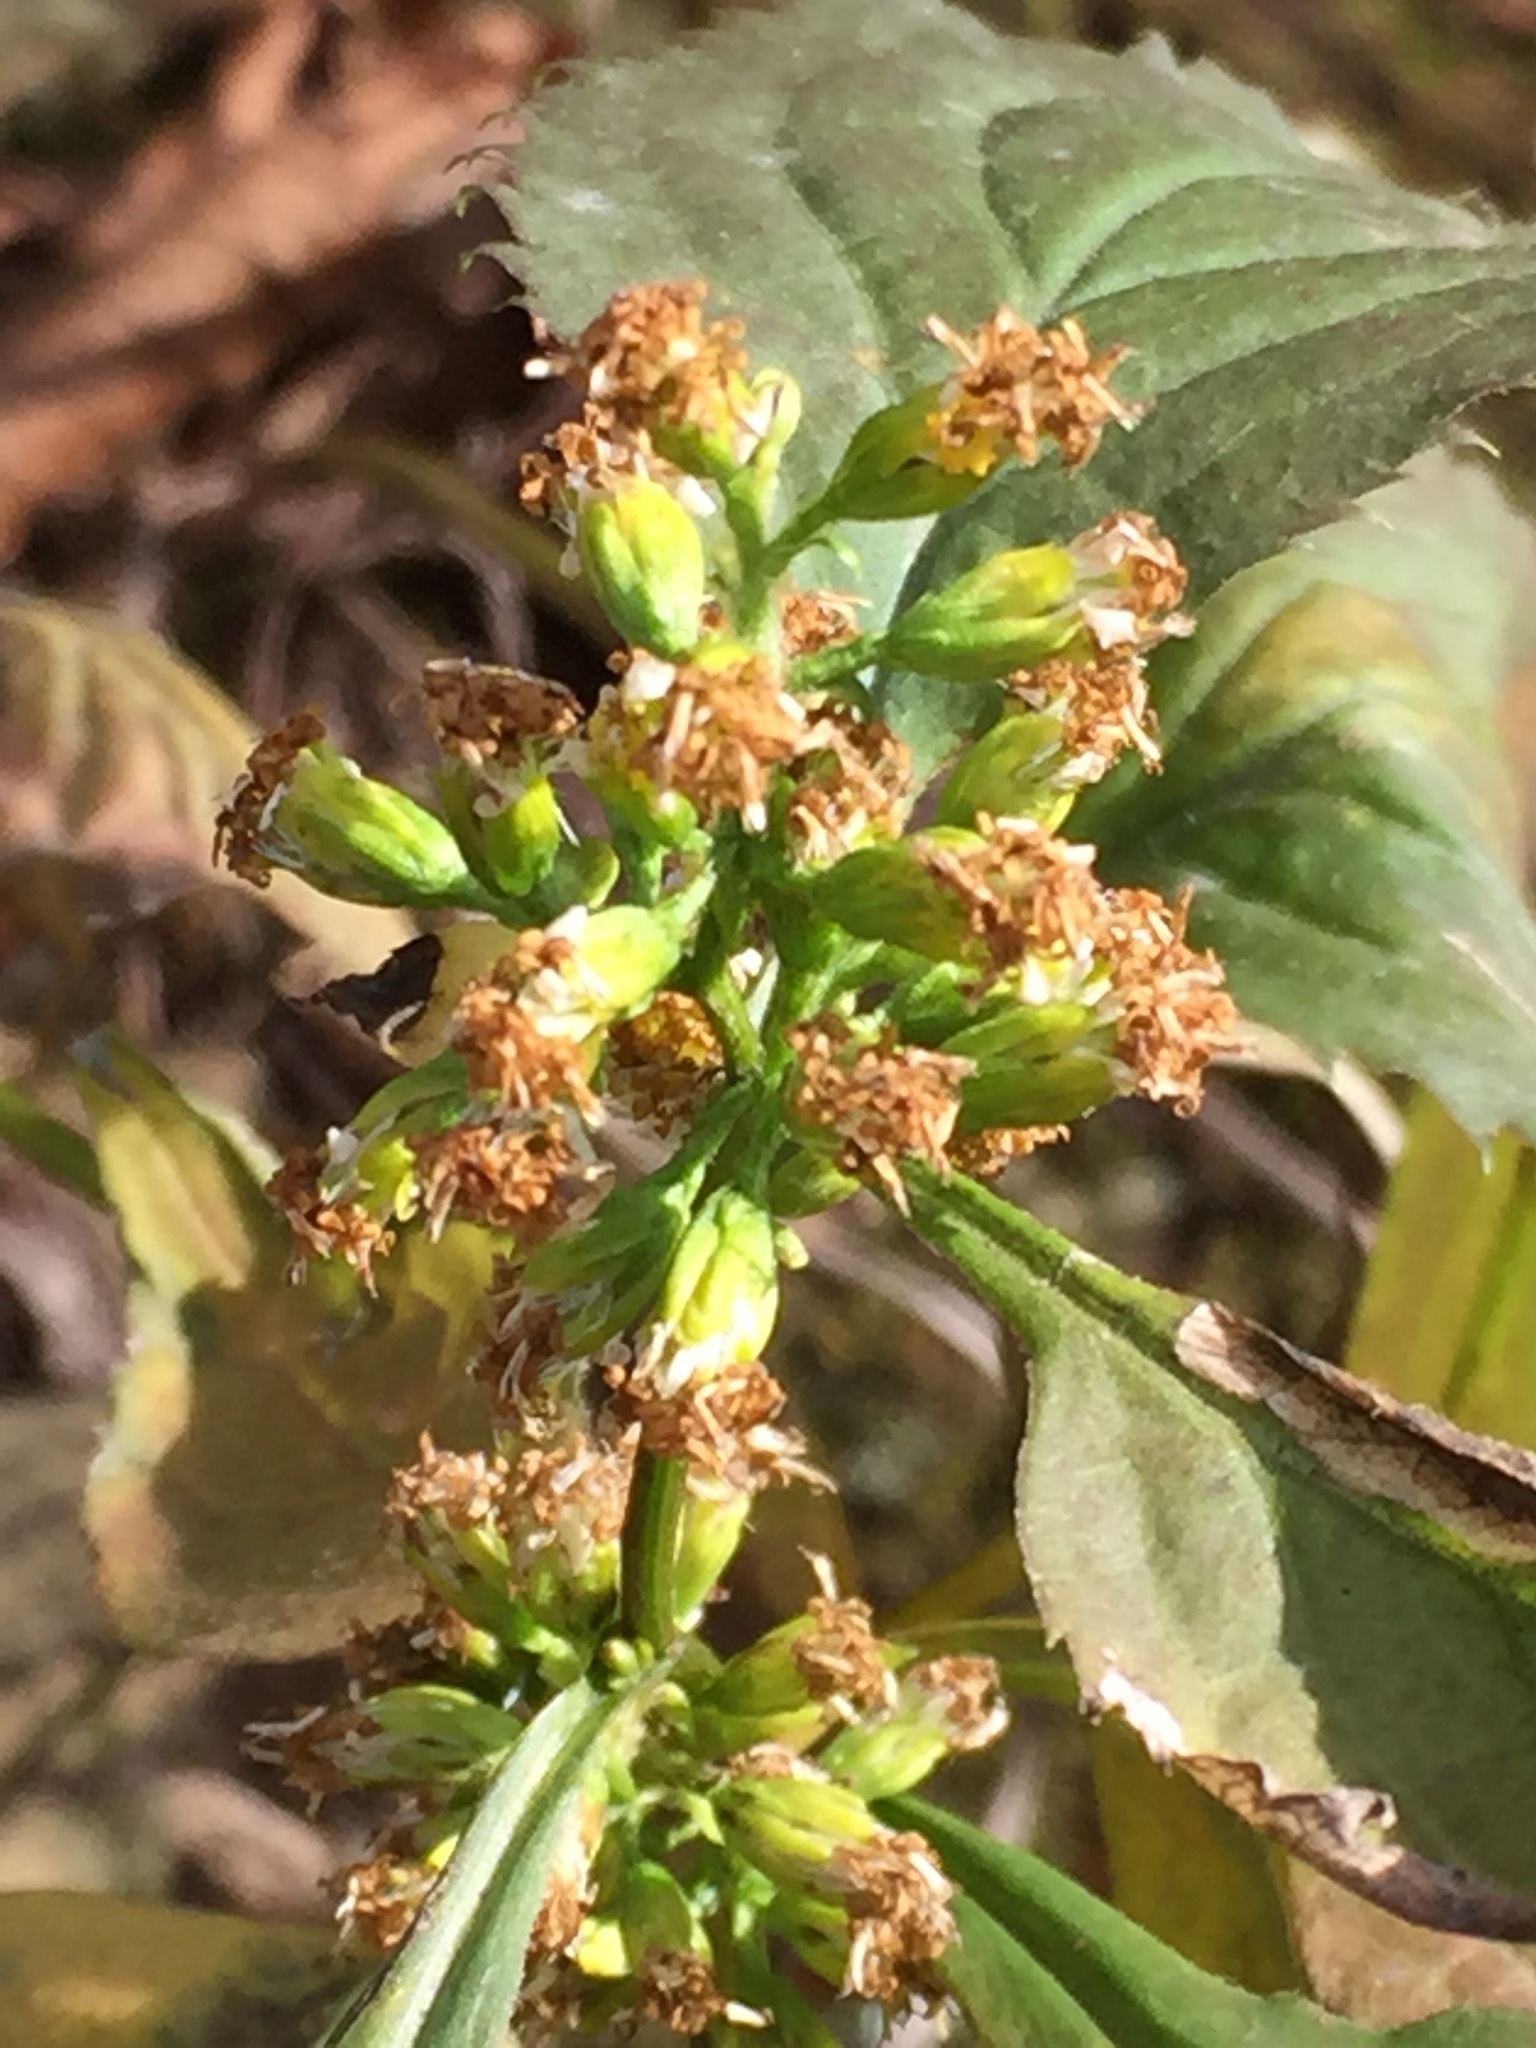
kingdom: Plantae
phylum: Tracheophyta
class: Magnoliopsida
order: Asterales
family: Asteraceae
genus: Solidago
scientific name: Solidago flexicaulis
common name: Zig-zag goldenrod
